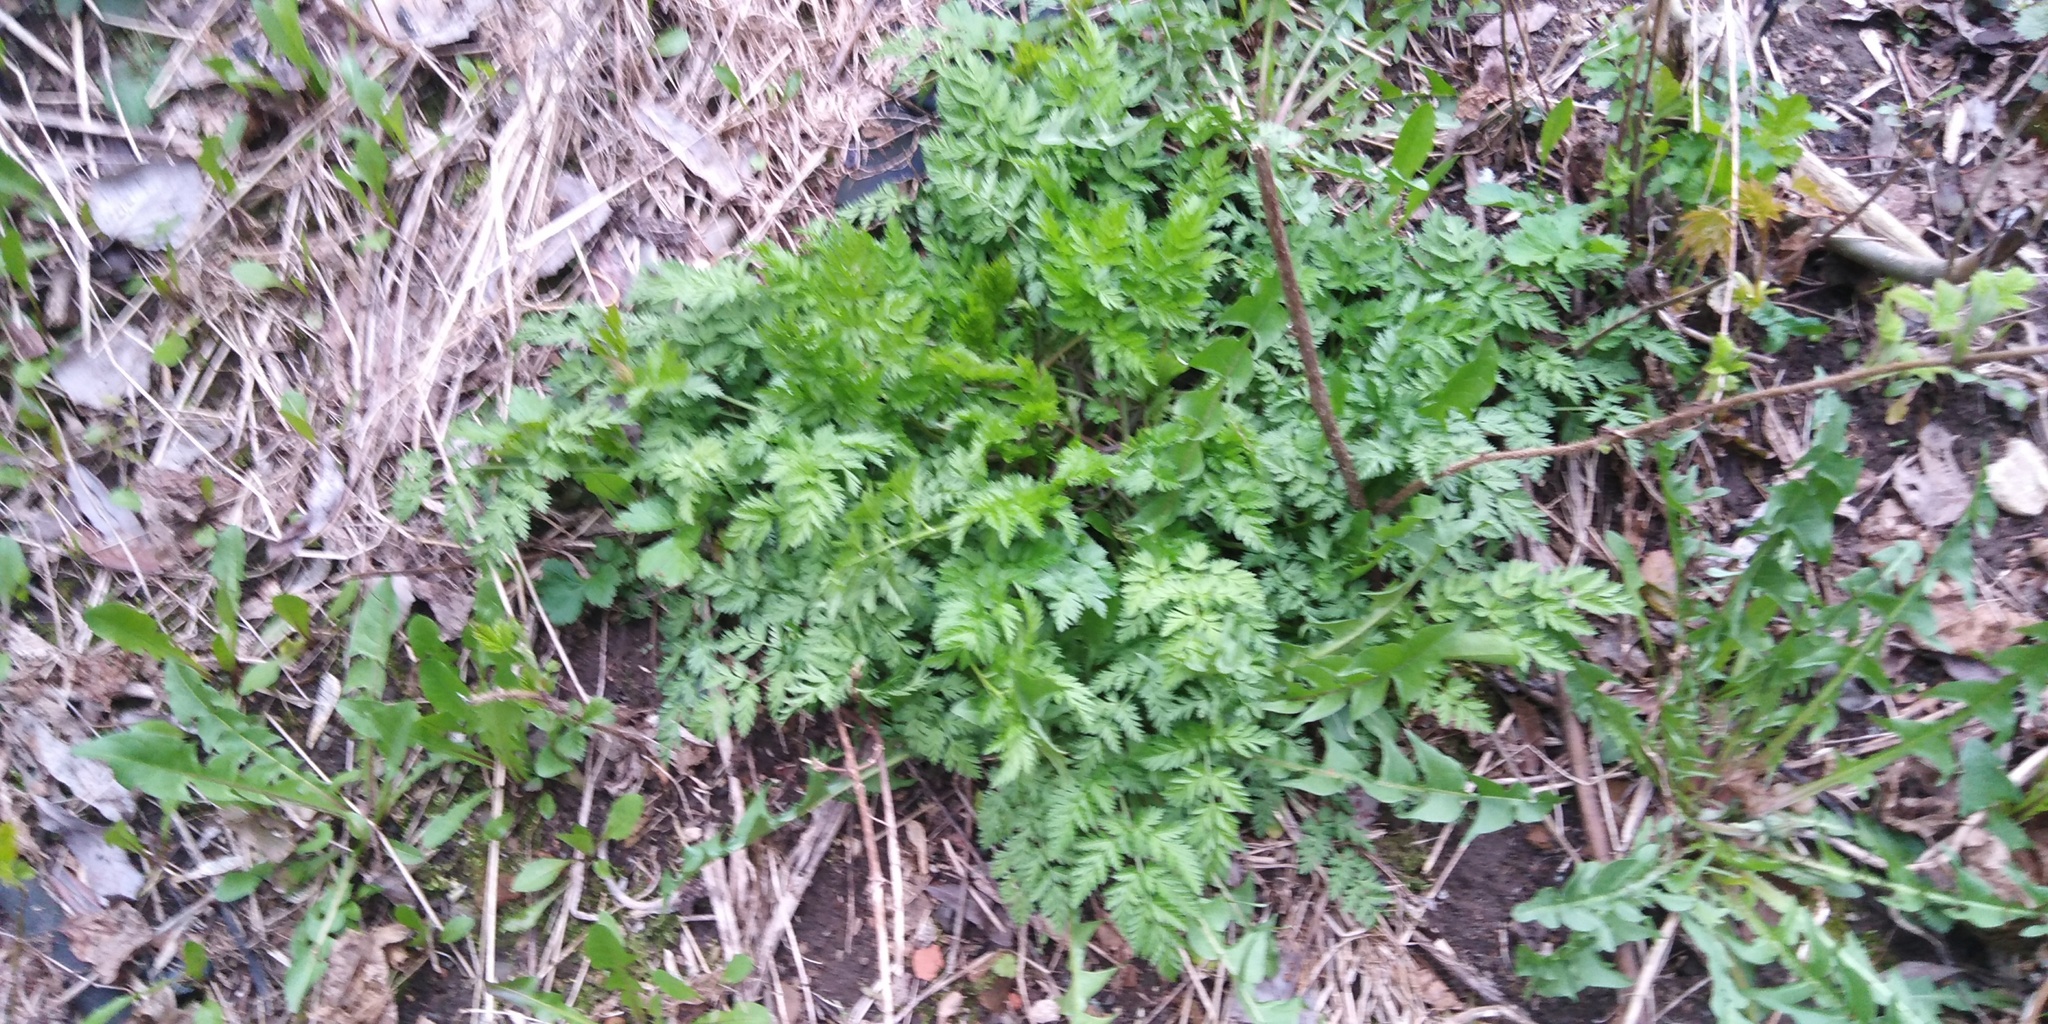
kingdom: Plantae
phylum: Tracheophyta
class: Magnoliopsida
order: Apiales
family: Apiaceae
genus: Anthriscus
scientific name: Anthriscus sylvestris
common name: Cow parsley
